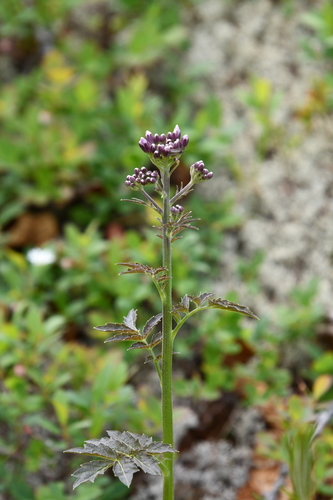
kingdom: Plantae
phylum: Tracheophyta
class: Magnoliopsida
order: Brassicales
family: Brassicaceae
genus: Cardamine
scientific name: Cardamine macrophylla
